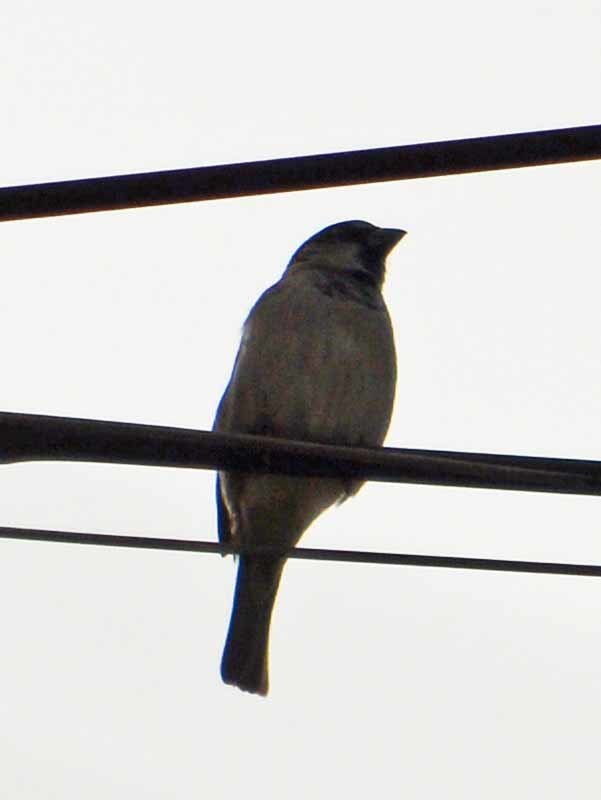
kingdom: Animalia
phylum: Chordata
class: Aves
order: Passeriformes
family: Passeridae
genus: Passer
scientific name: Passer domesticus
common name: House sparrow
